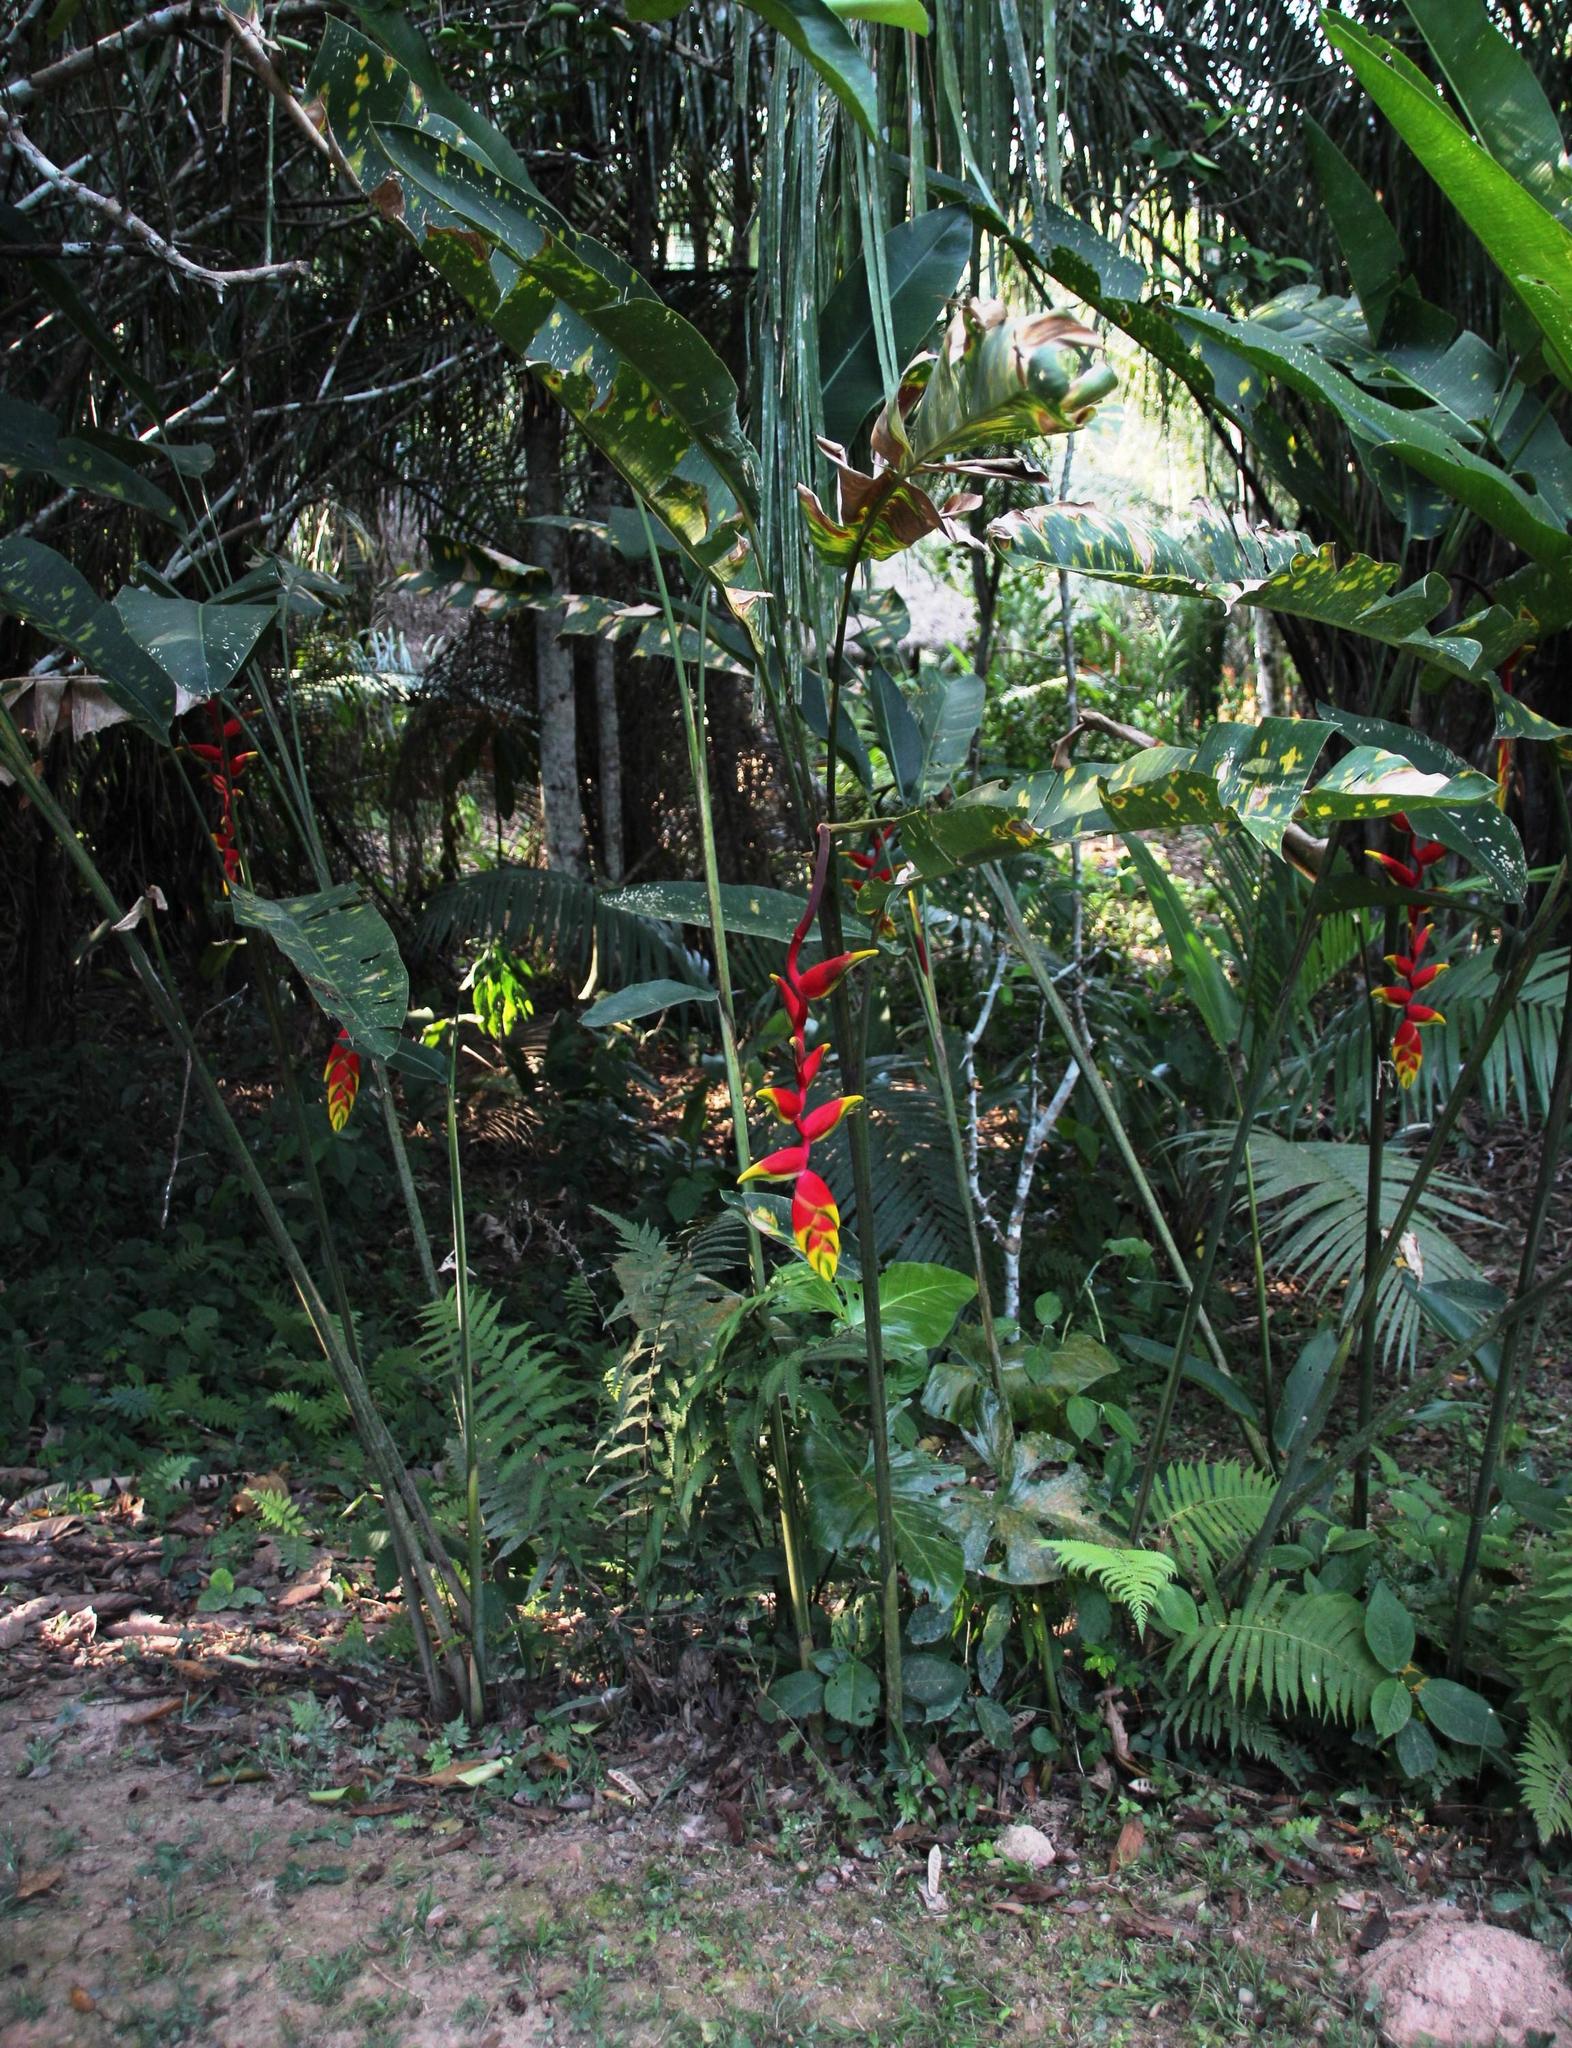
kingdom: Plantae
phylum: Tracheophyta
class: Liliopsida
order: Zingiberales
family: Heliconiaceae
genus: Heliconia
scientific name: Heliconia rostrata
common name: False bird of paradise
